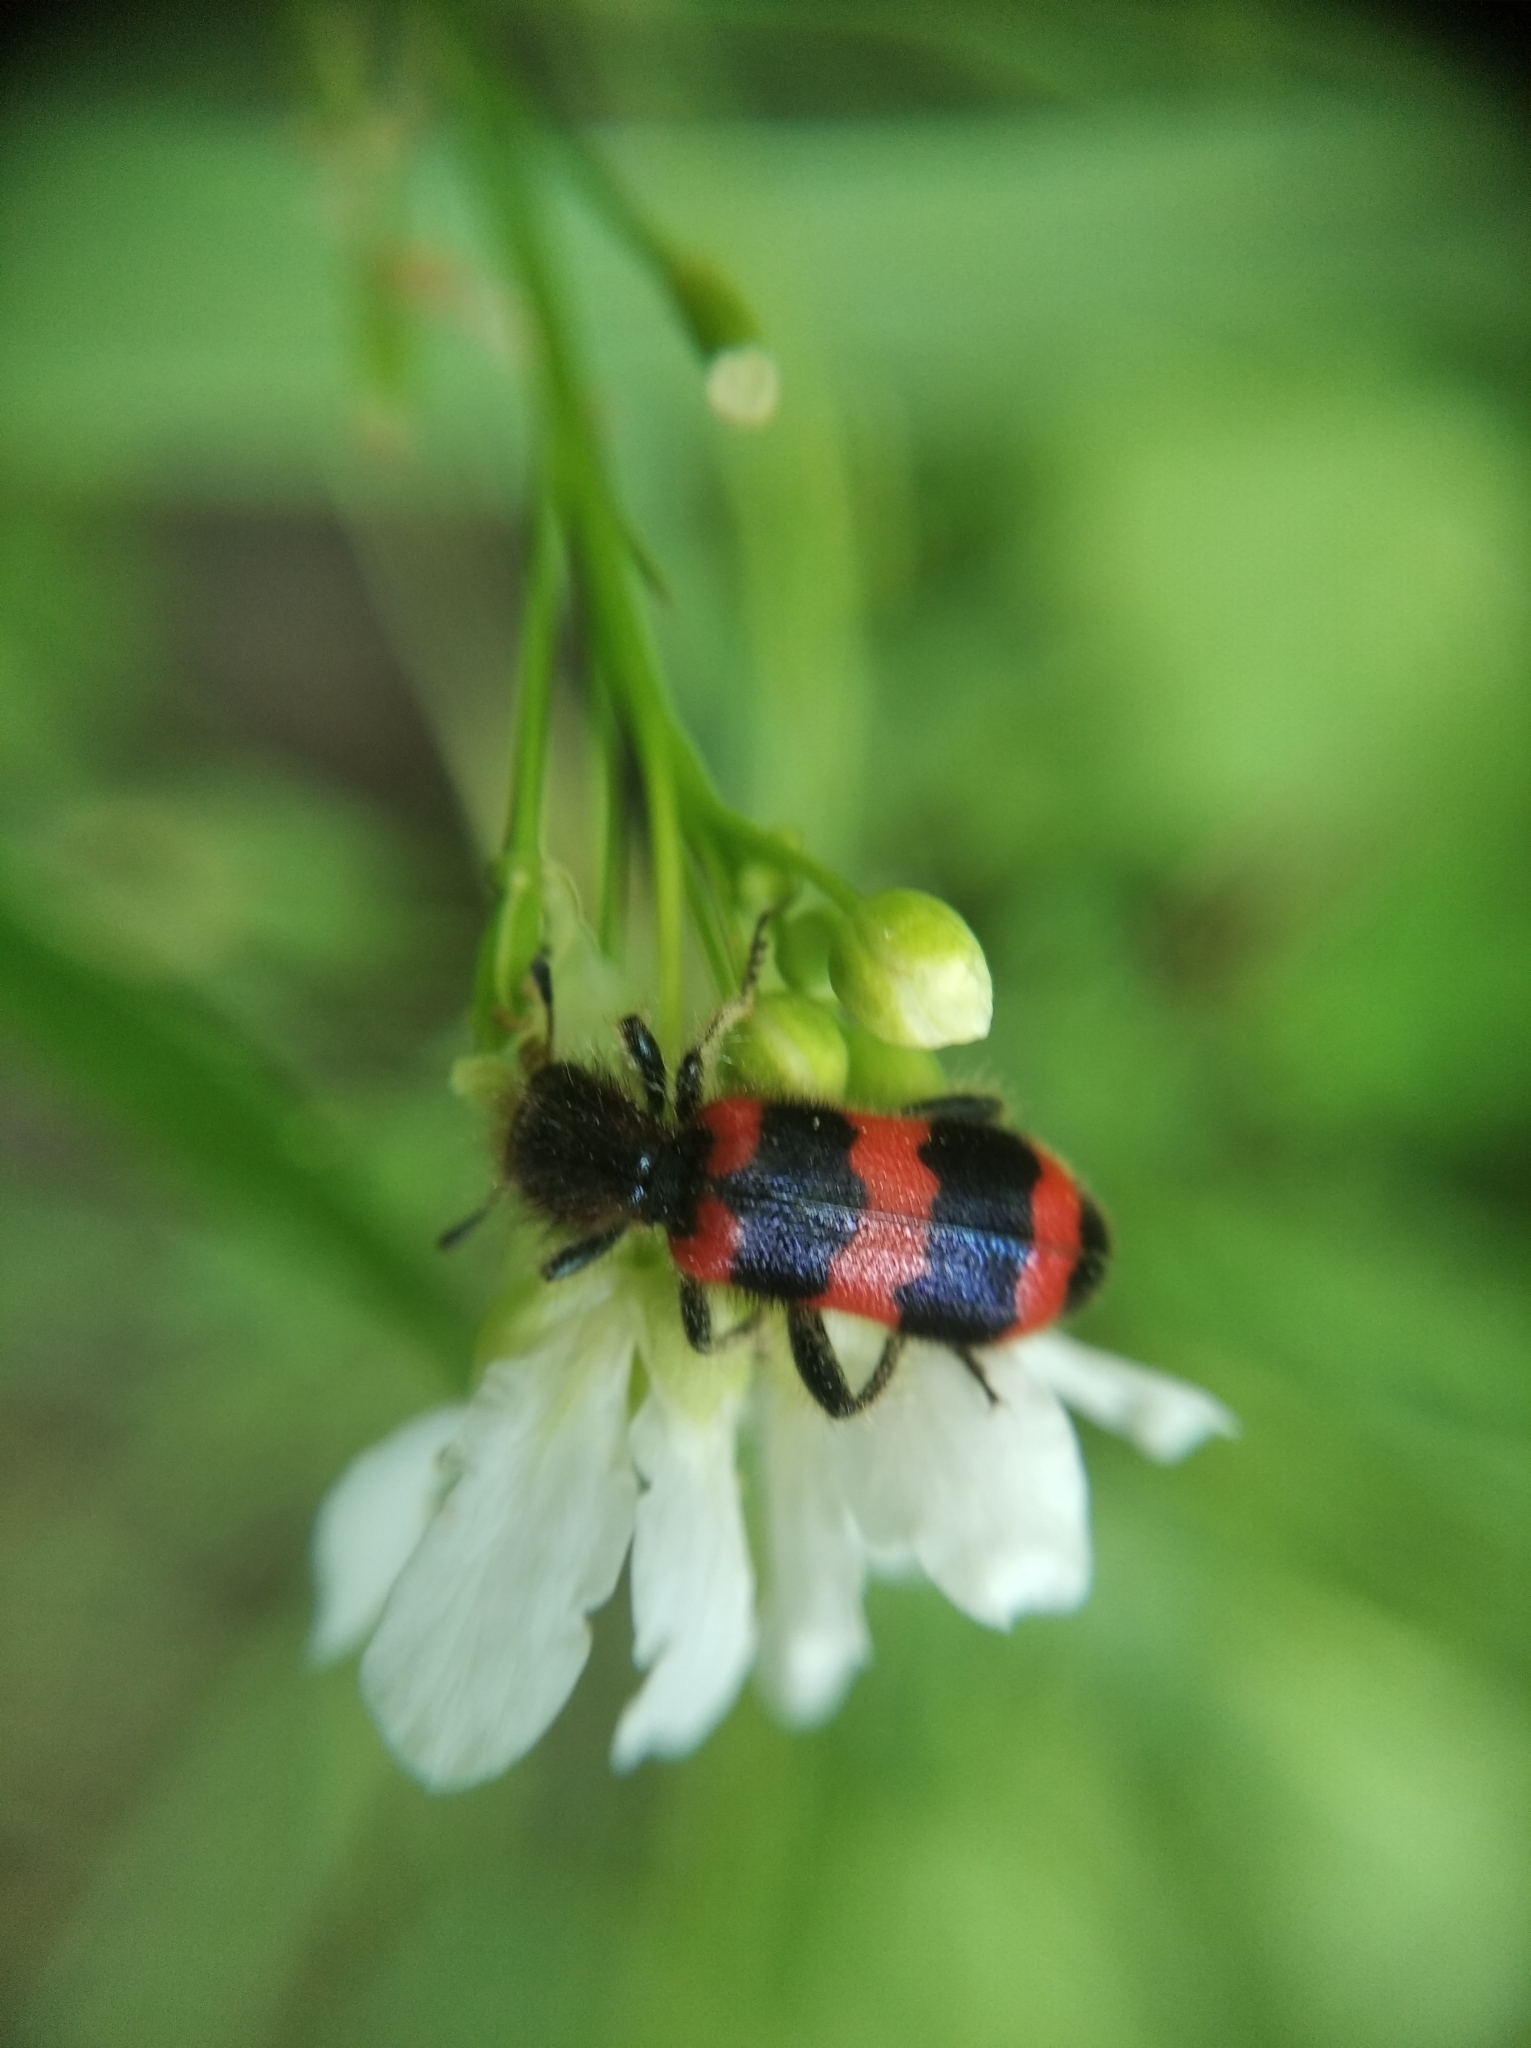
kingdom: Animalia
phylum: Arthropoda
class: Insecta
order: Coleoptera
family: Cleridae
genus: Trichodes
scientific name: Trichodes apiarius
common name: Bee-eating beetle
